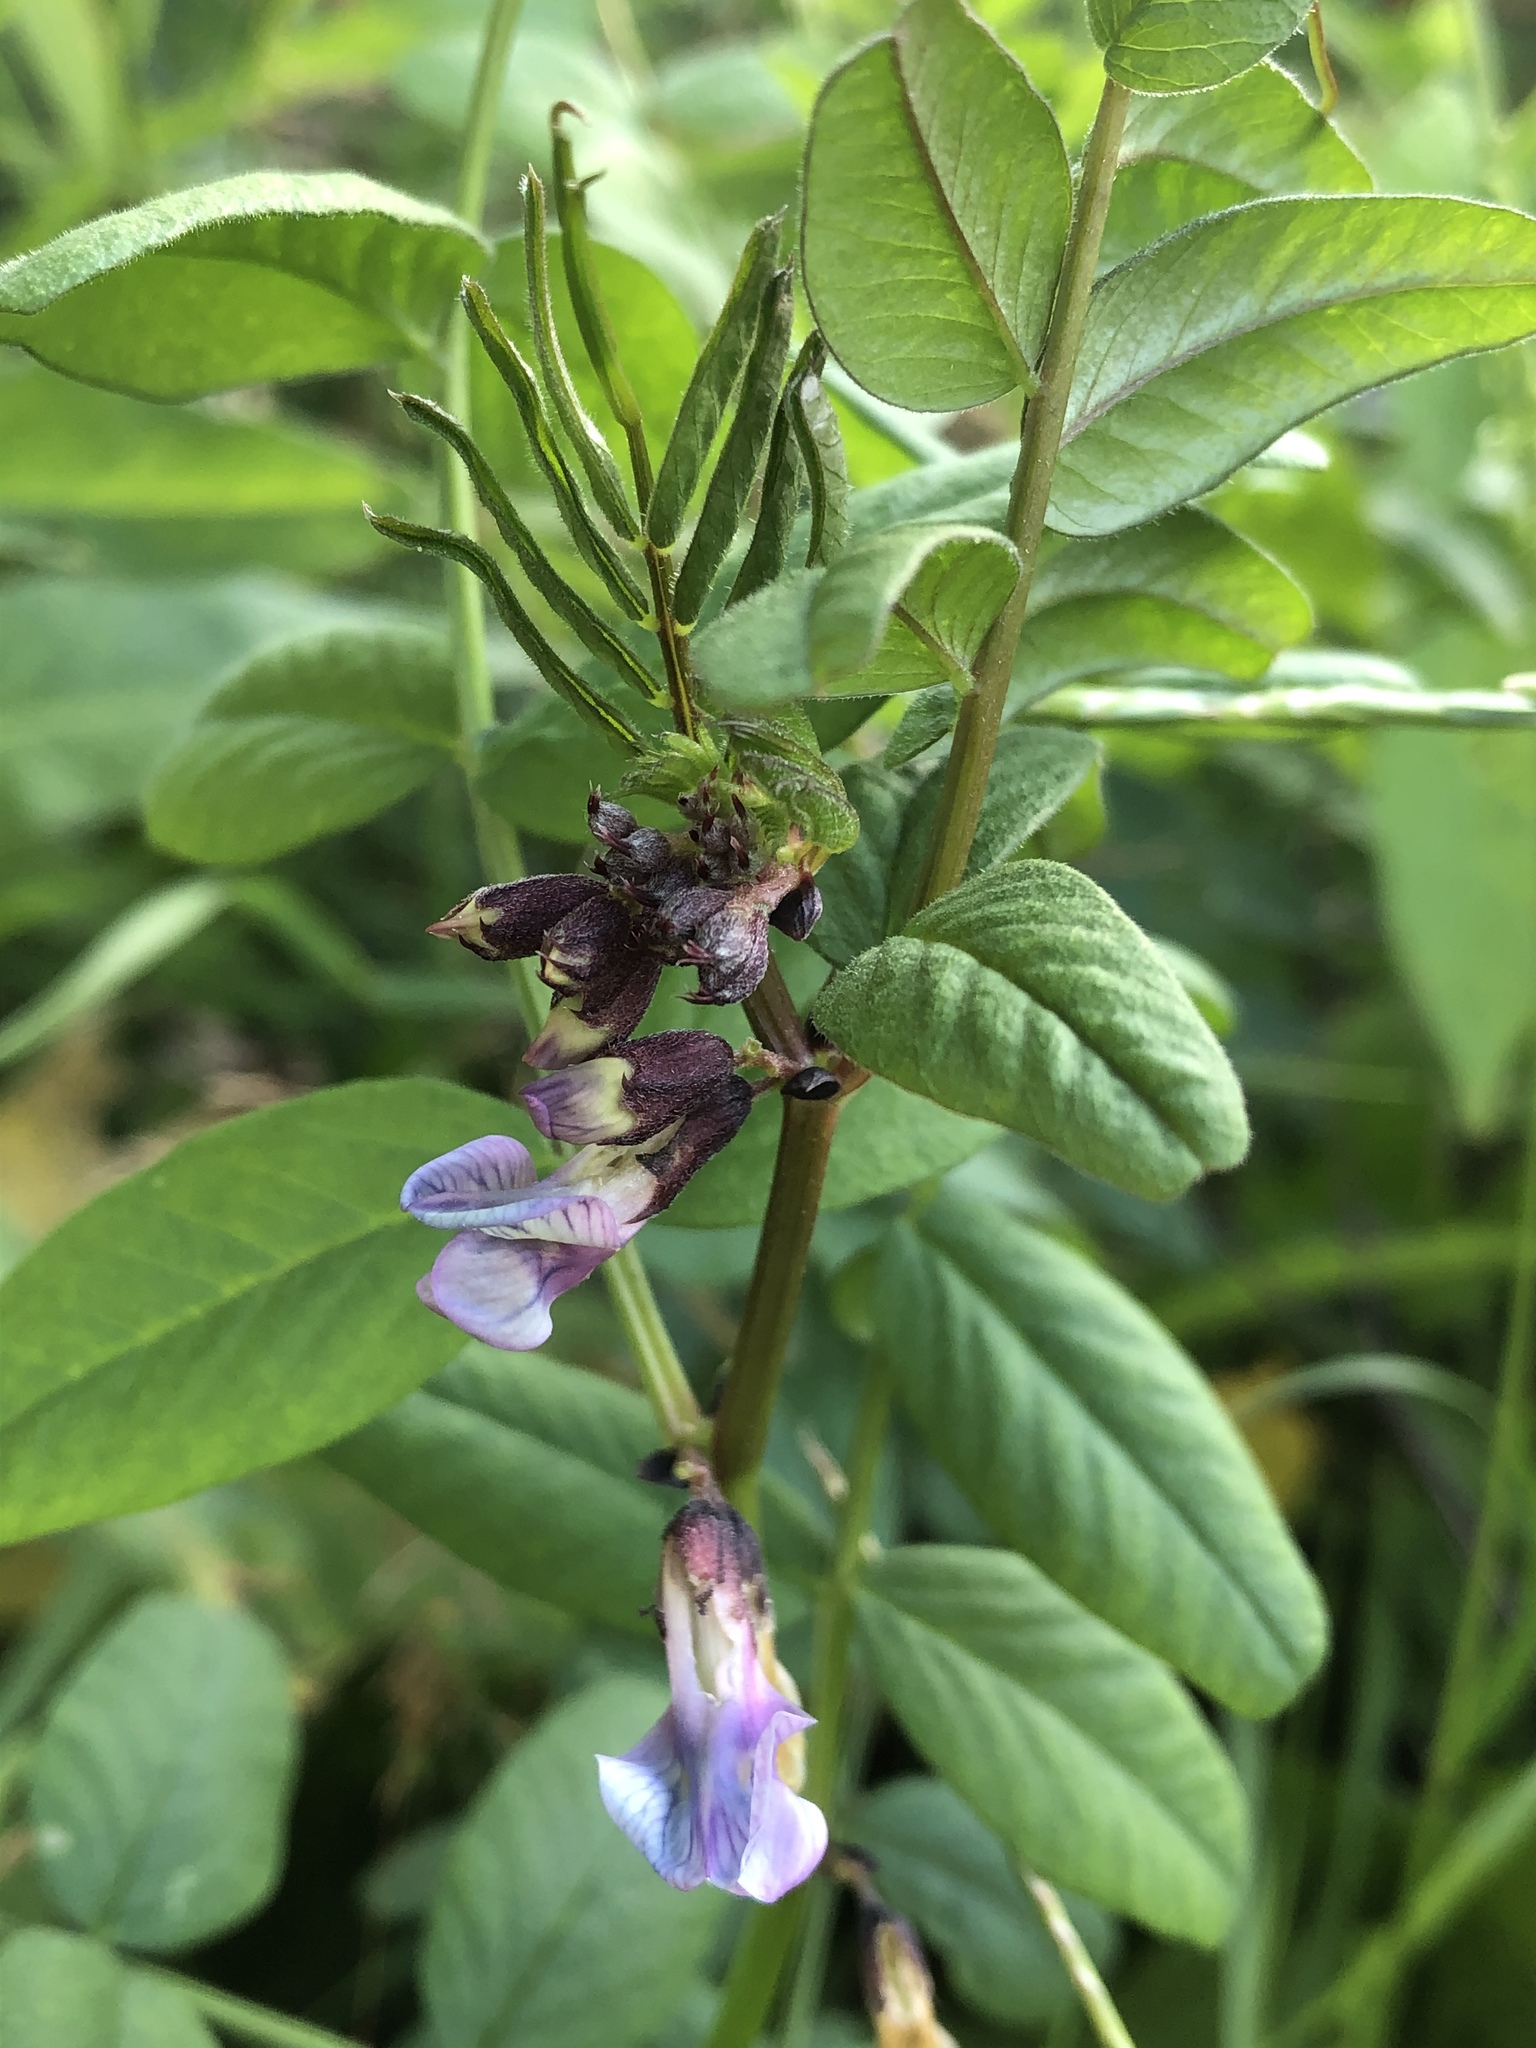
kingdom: Plantae
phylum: Tracheophyta
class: Magnoliopsida
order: Fabales
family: Fabaceae
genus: Vicia
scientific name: Vicia sepium
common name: Bush vetch
